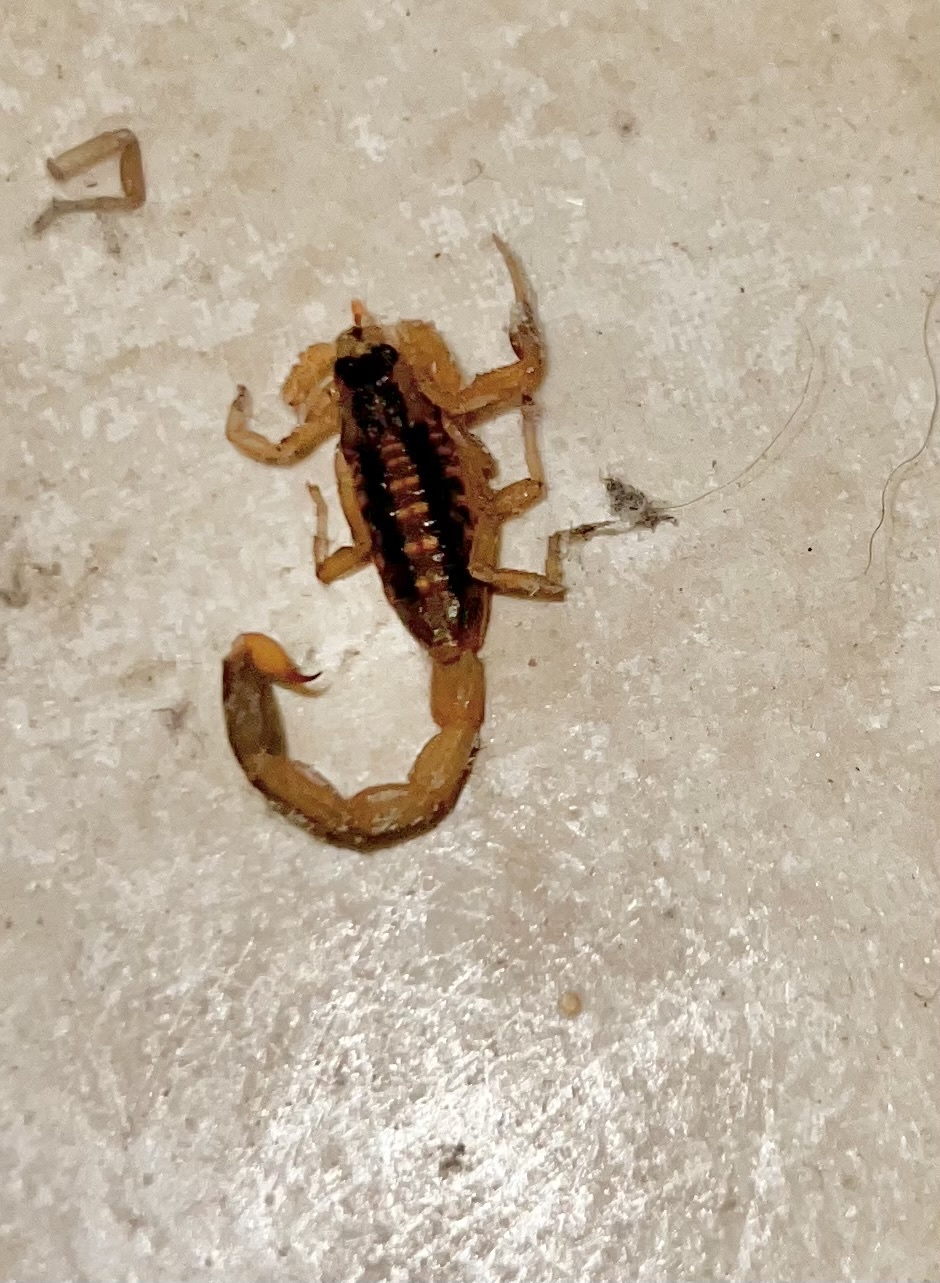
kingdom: Animalia
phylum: Arthropoda
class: Arachnida
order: Scorpiones
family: Buthidae
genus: Centruroides
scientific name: Centruroides vittatus
